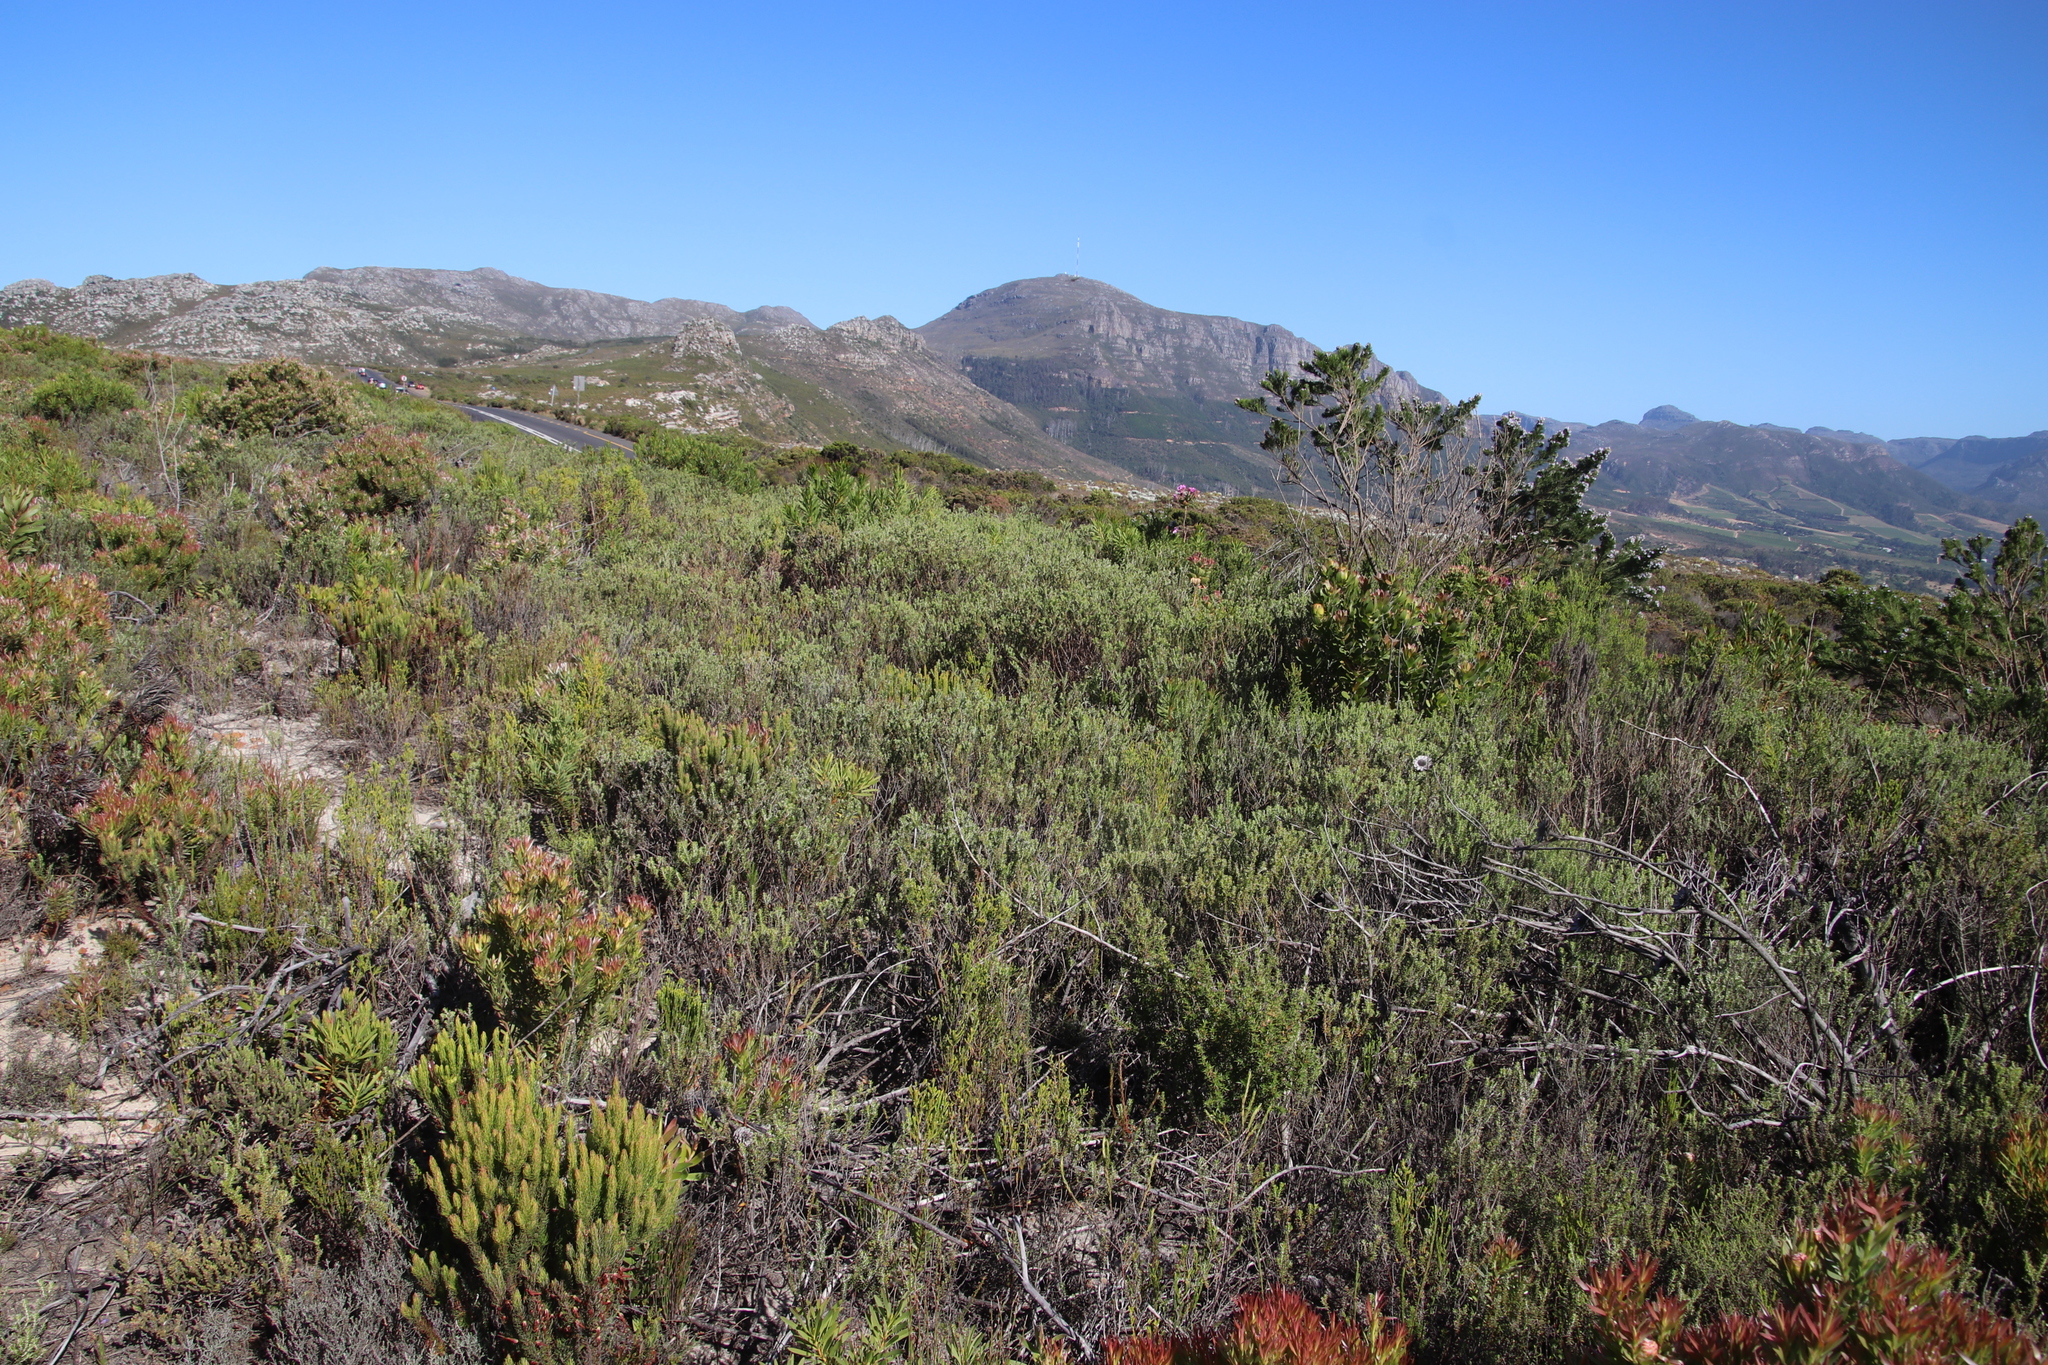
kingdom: Plantae
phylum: Tracheophyta
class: Magnoliopsida
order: Asterales
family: Asteraceae
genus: Metalasia
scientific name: Metalasia densa
